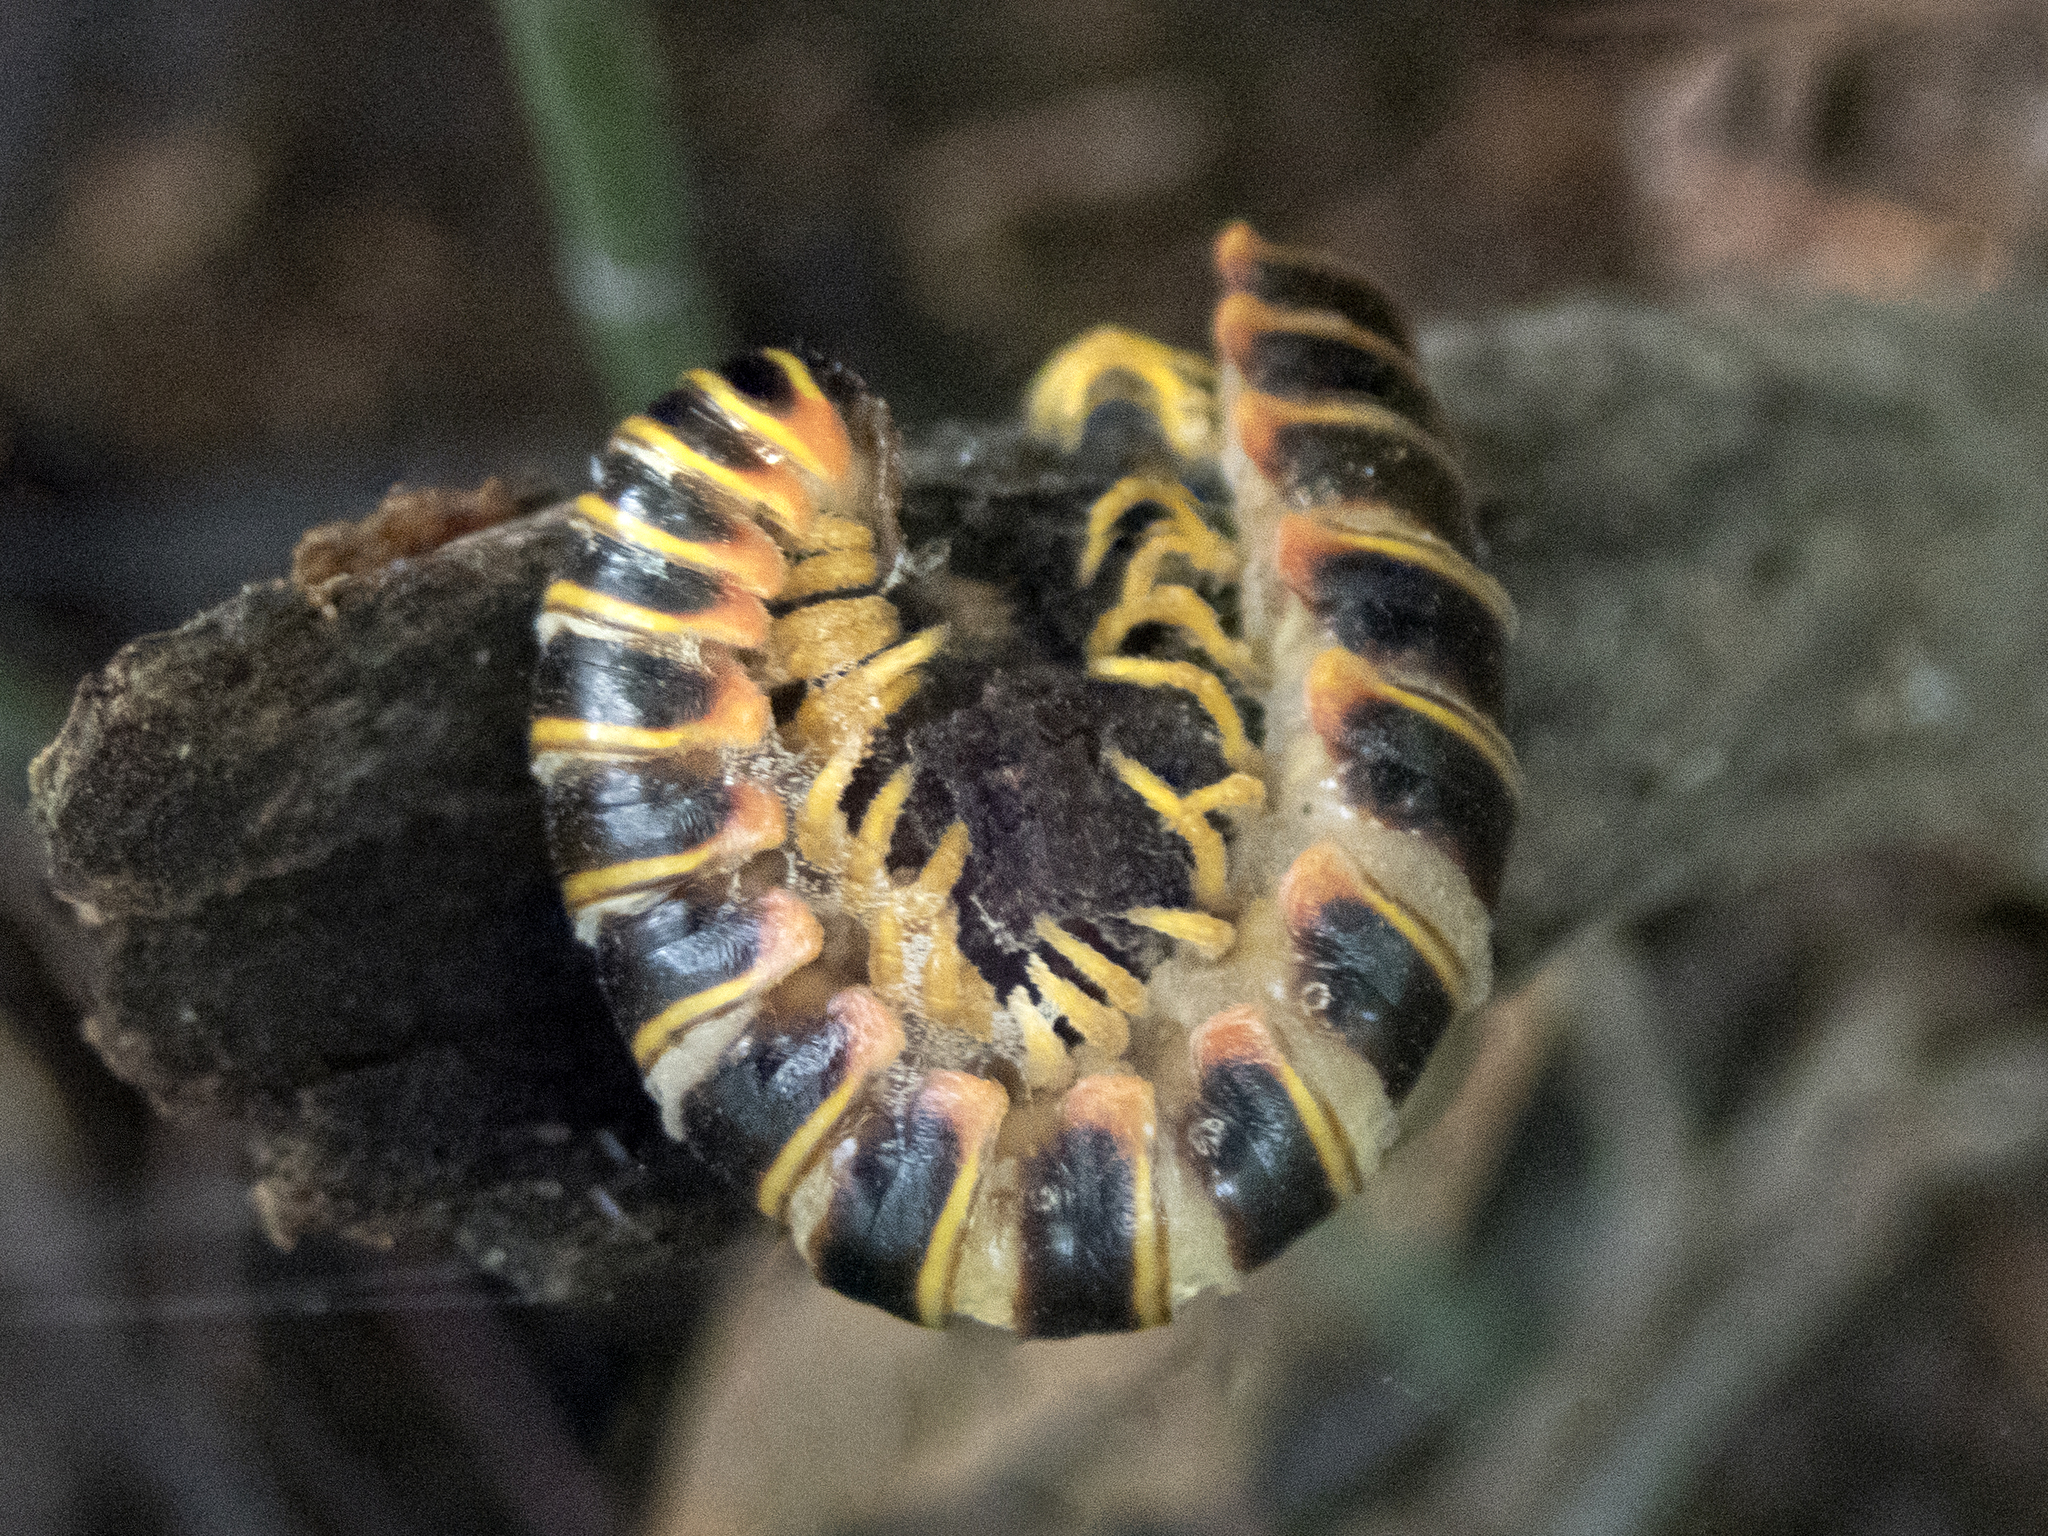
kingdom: Animalia
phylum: Arthropoda
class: Diplopoda
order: Polydesmida
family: Xystodesmidae
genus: Apheloria
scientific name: Apheloria virginiensis
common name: Black-and-gold flat millipede
